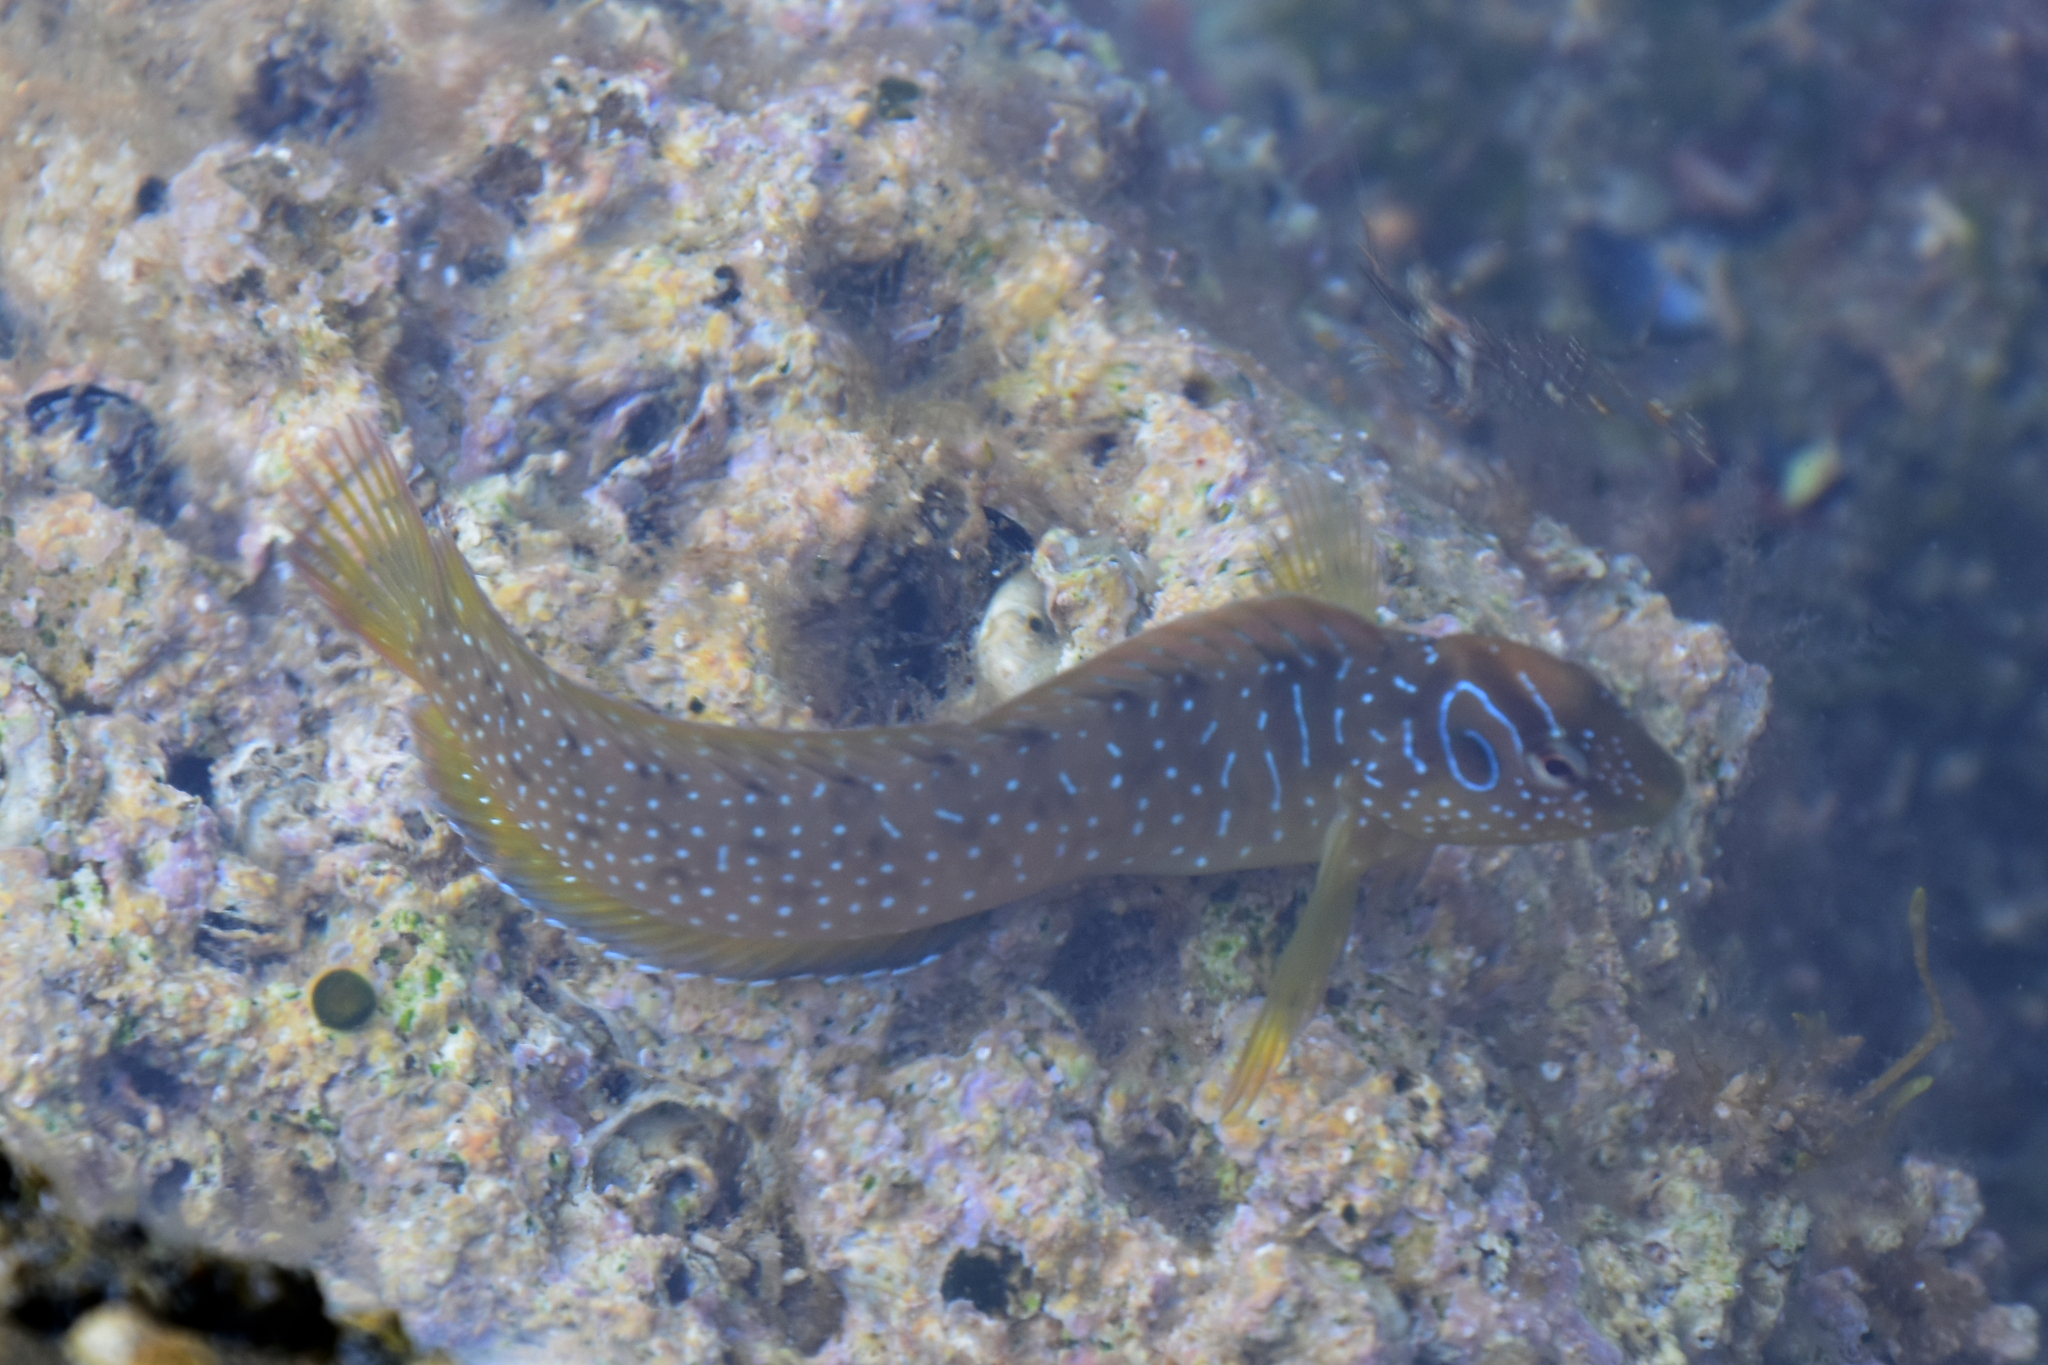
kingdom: Animalia
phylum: Chordata
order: Perciformes
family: Blenniidae
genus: Salaria
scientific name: Salaria pavo
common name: Peacock blenny
